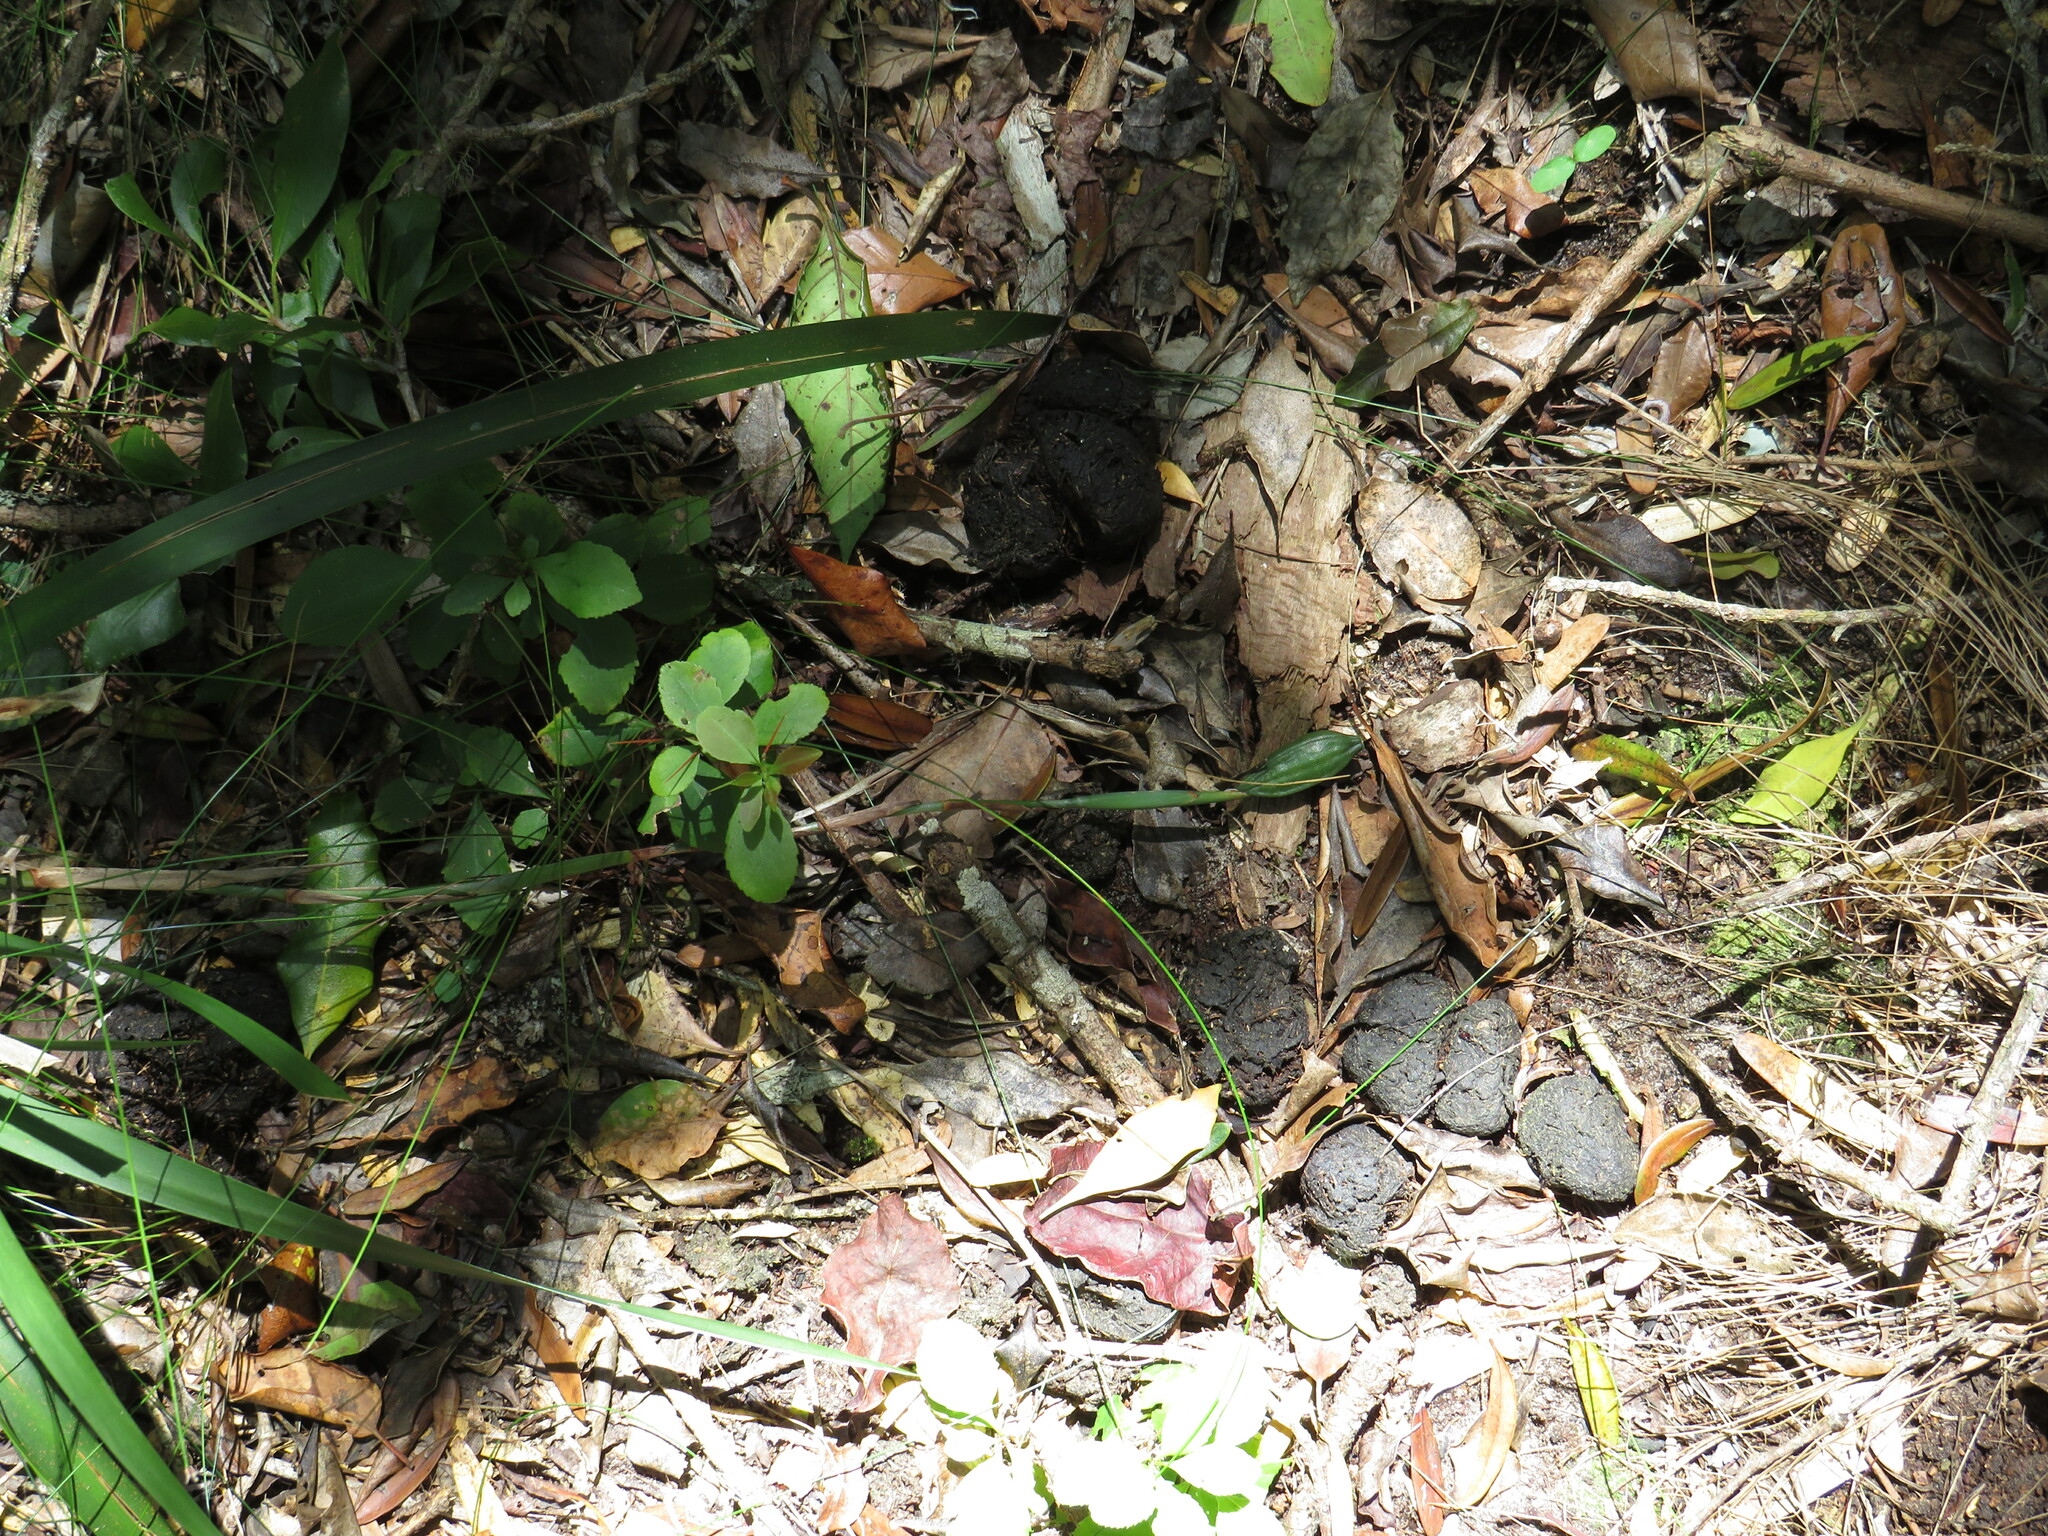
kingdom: Animalia
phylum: Chordata
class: Mammalia
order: Artiodactyla
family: Suidae
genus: Potamochoerus
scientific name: Potamochoerus larvatus
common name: Bushpig
